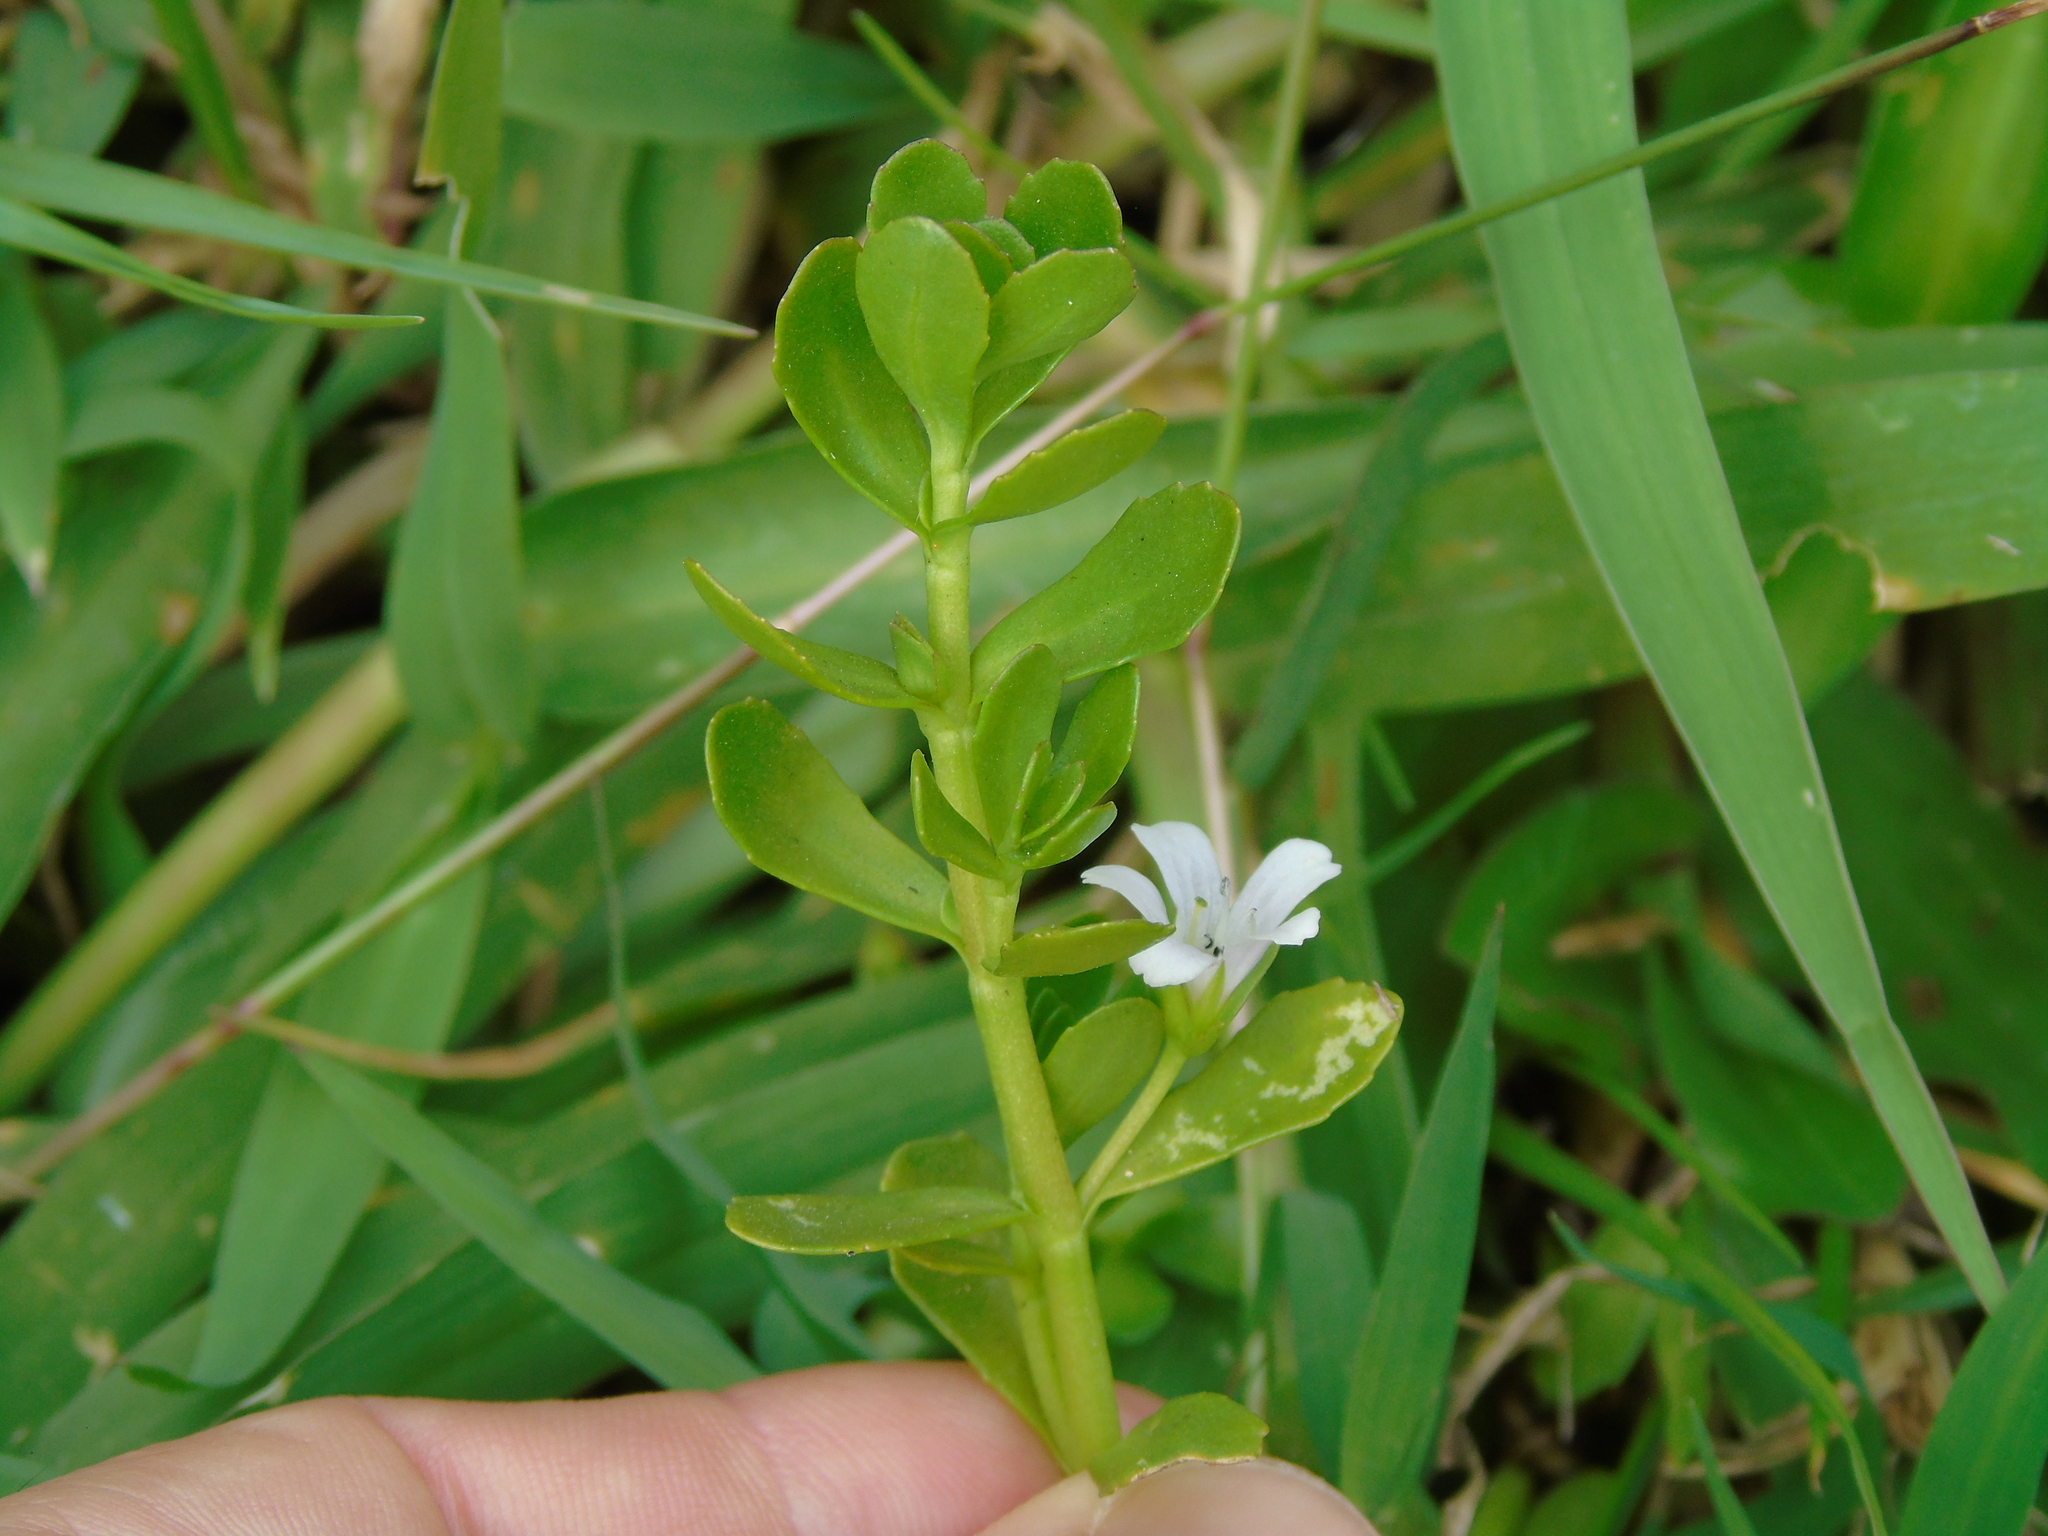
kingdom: Plantae
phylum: Tracheophyta
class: Magnoliopsida
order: Lamiales
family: Plantaginaceae
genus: Bacopa
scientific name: Bacopa monnieri
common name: Indian-pennywort
